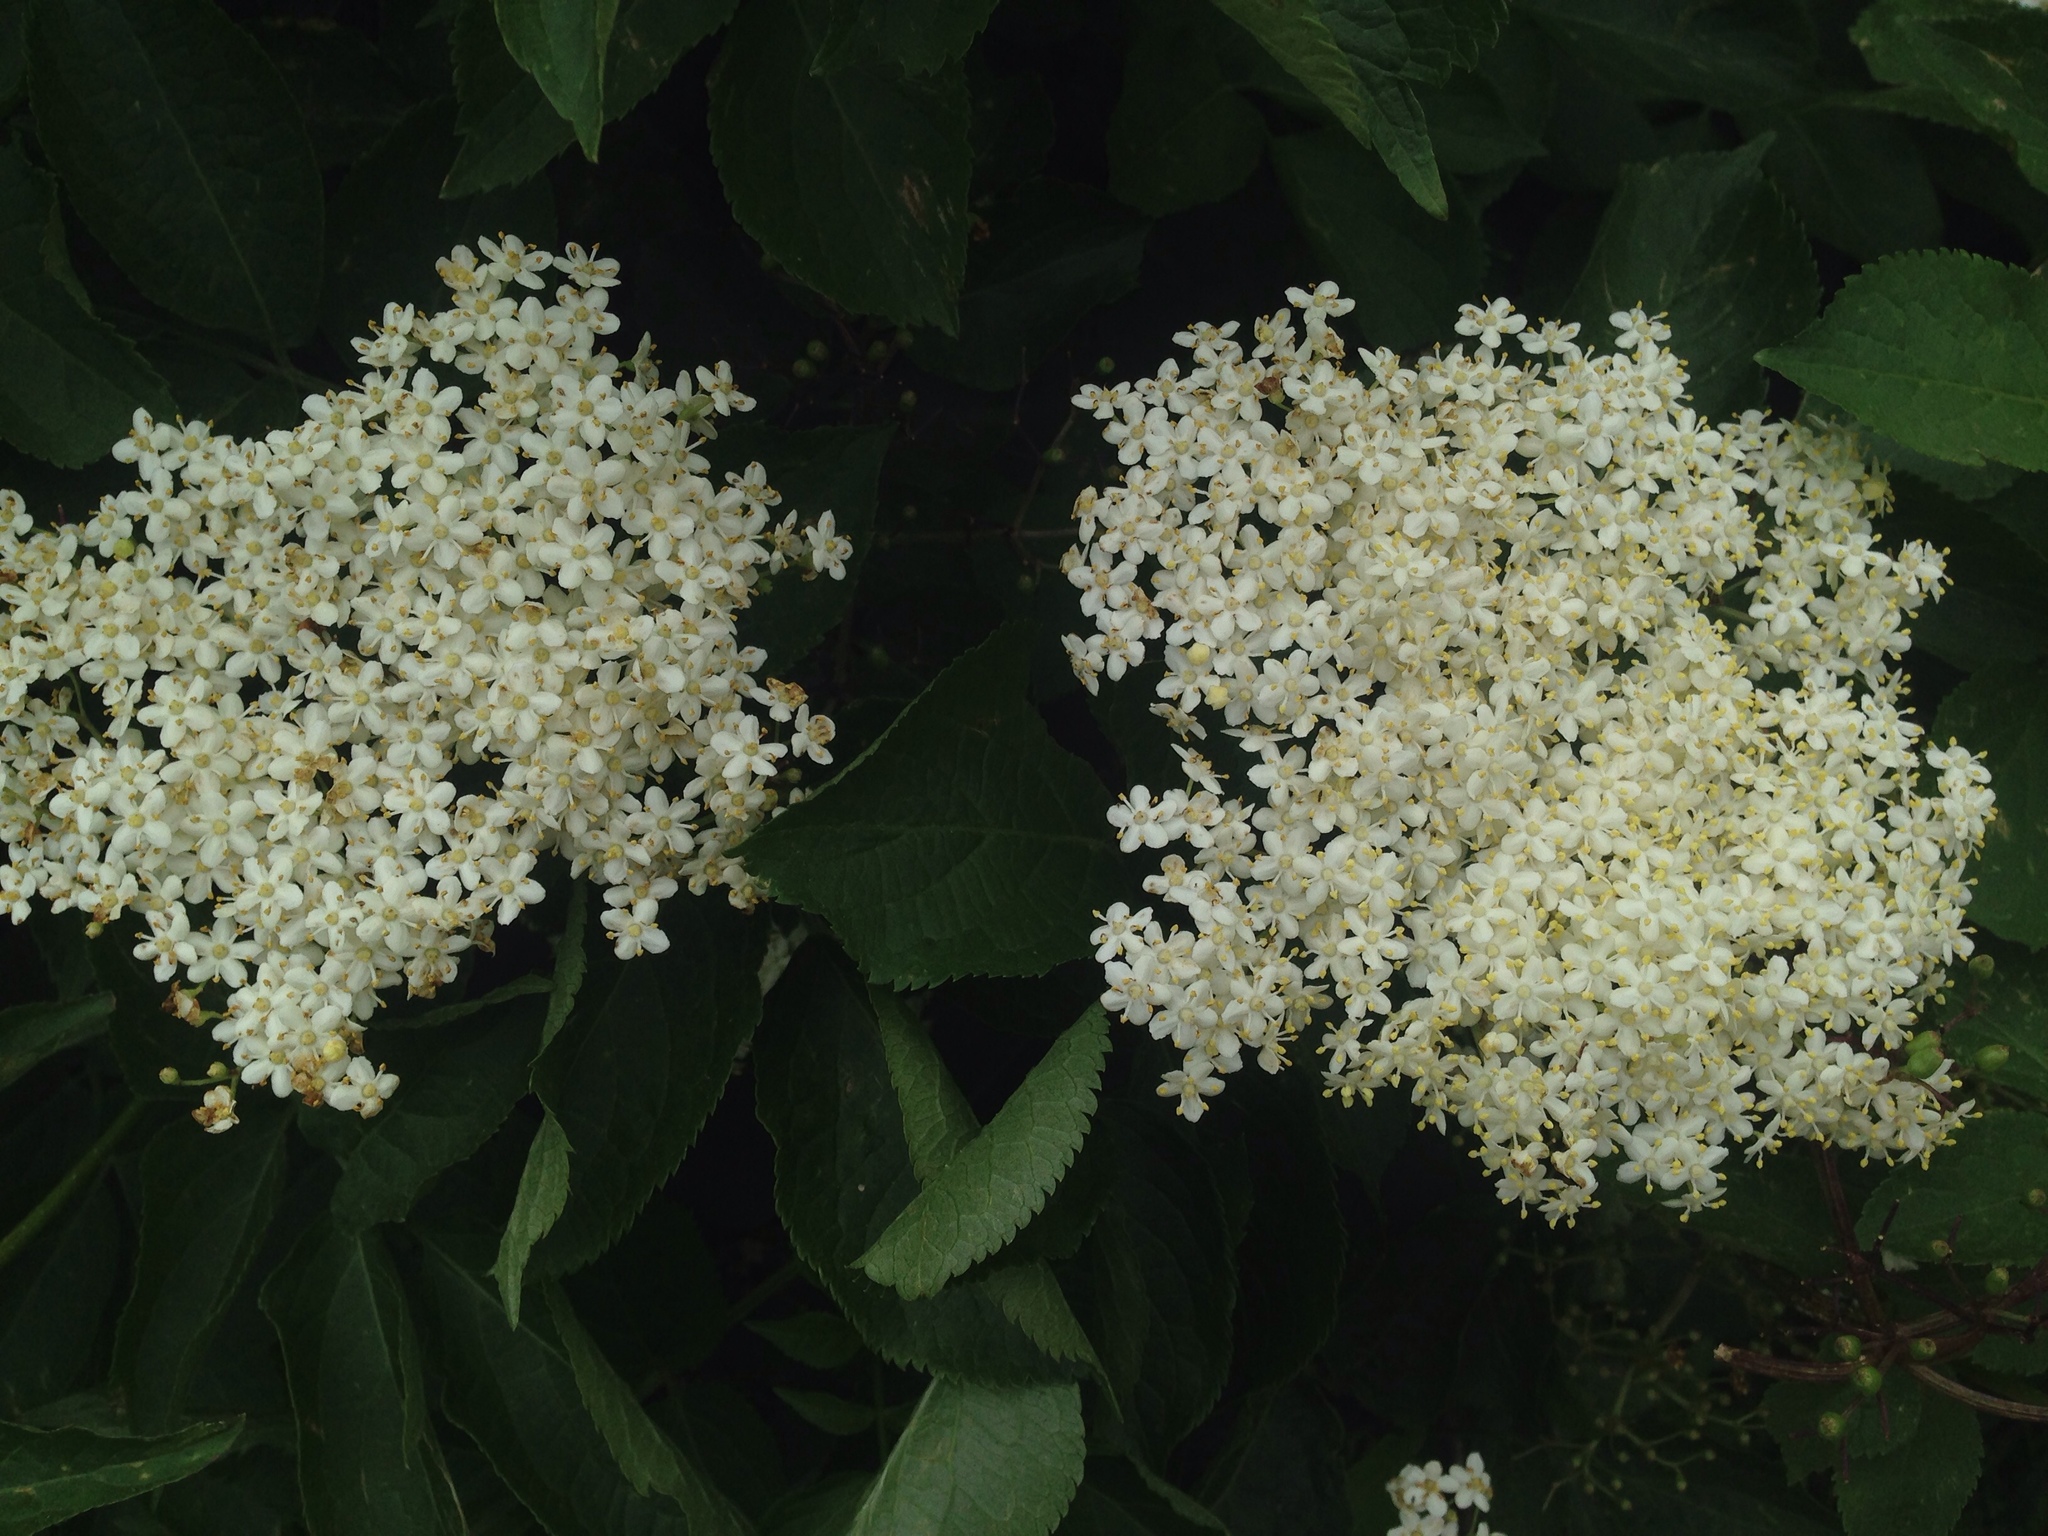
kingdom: Plantae
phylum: Tracheophyta
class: Magnoliopsida
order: Dipsacales
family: Viburnaceae
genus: Sambucus
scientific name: Sambucus nigra
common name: Elder
